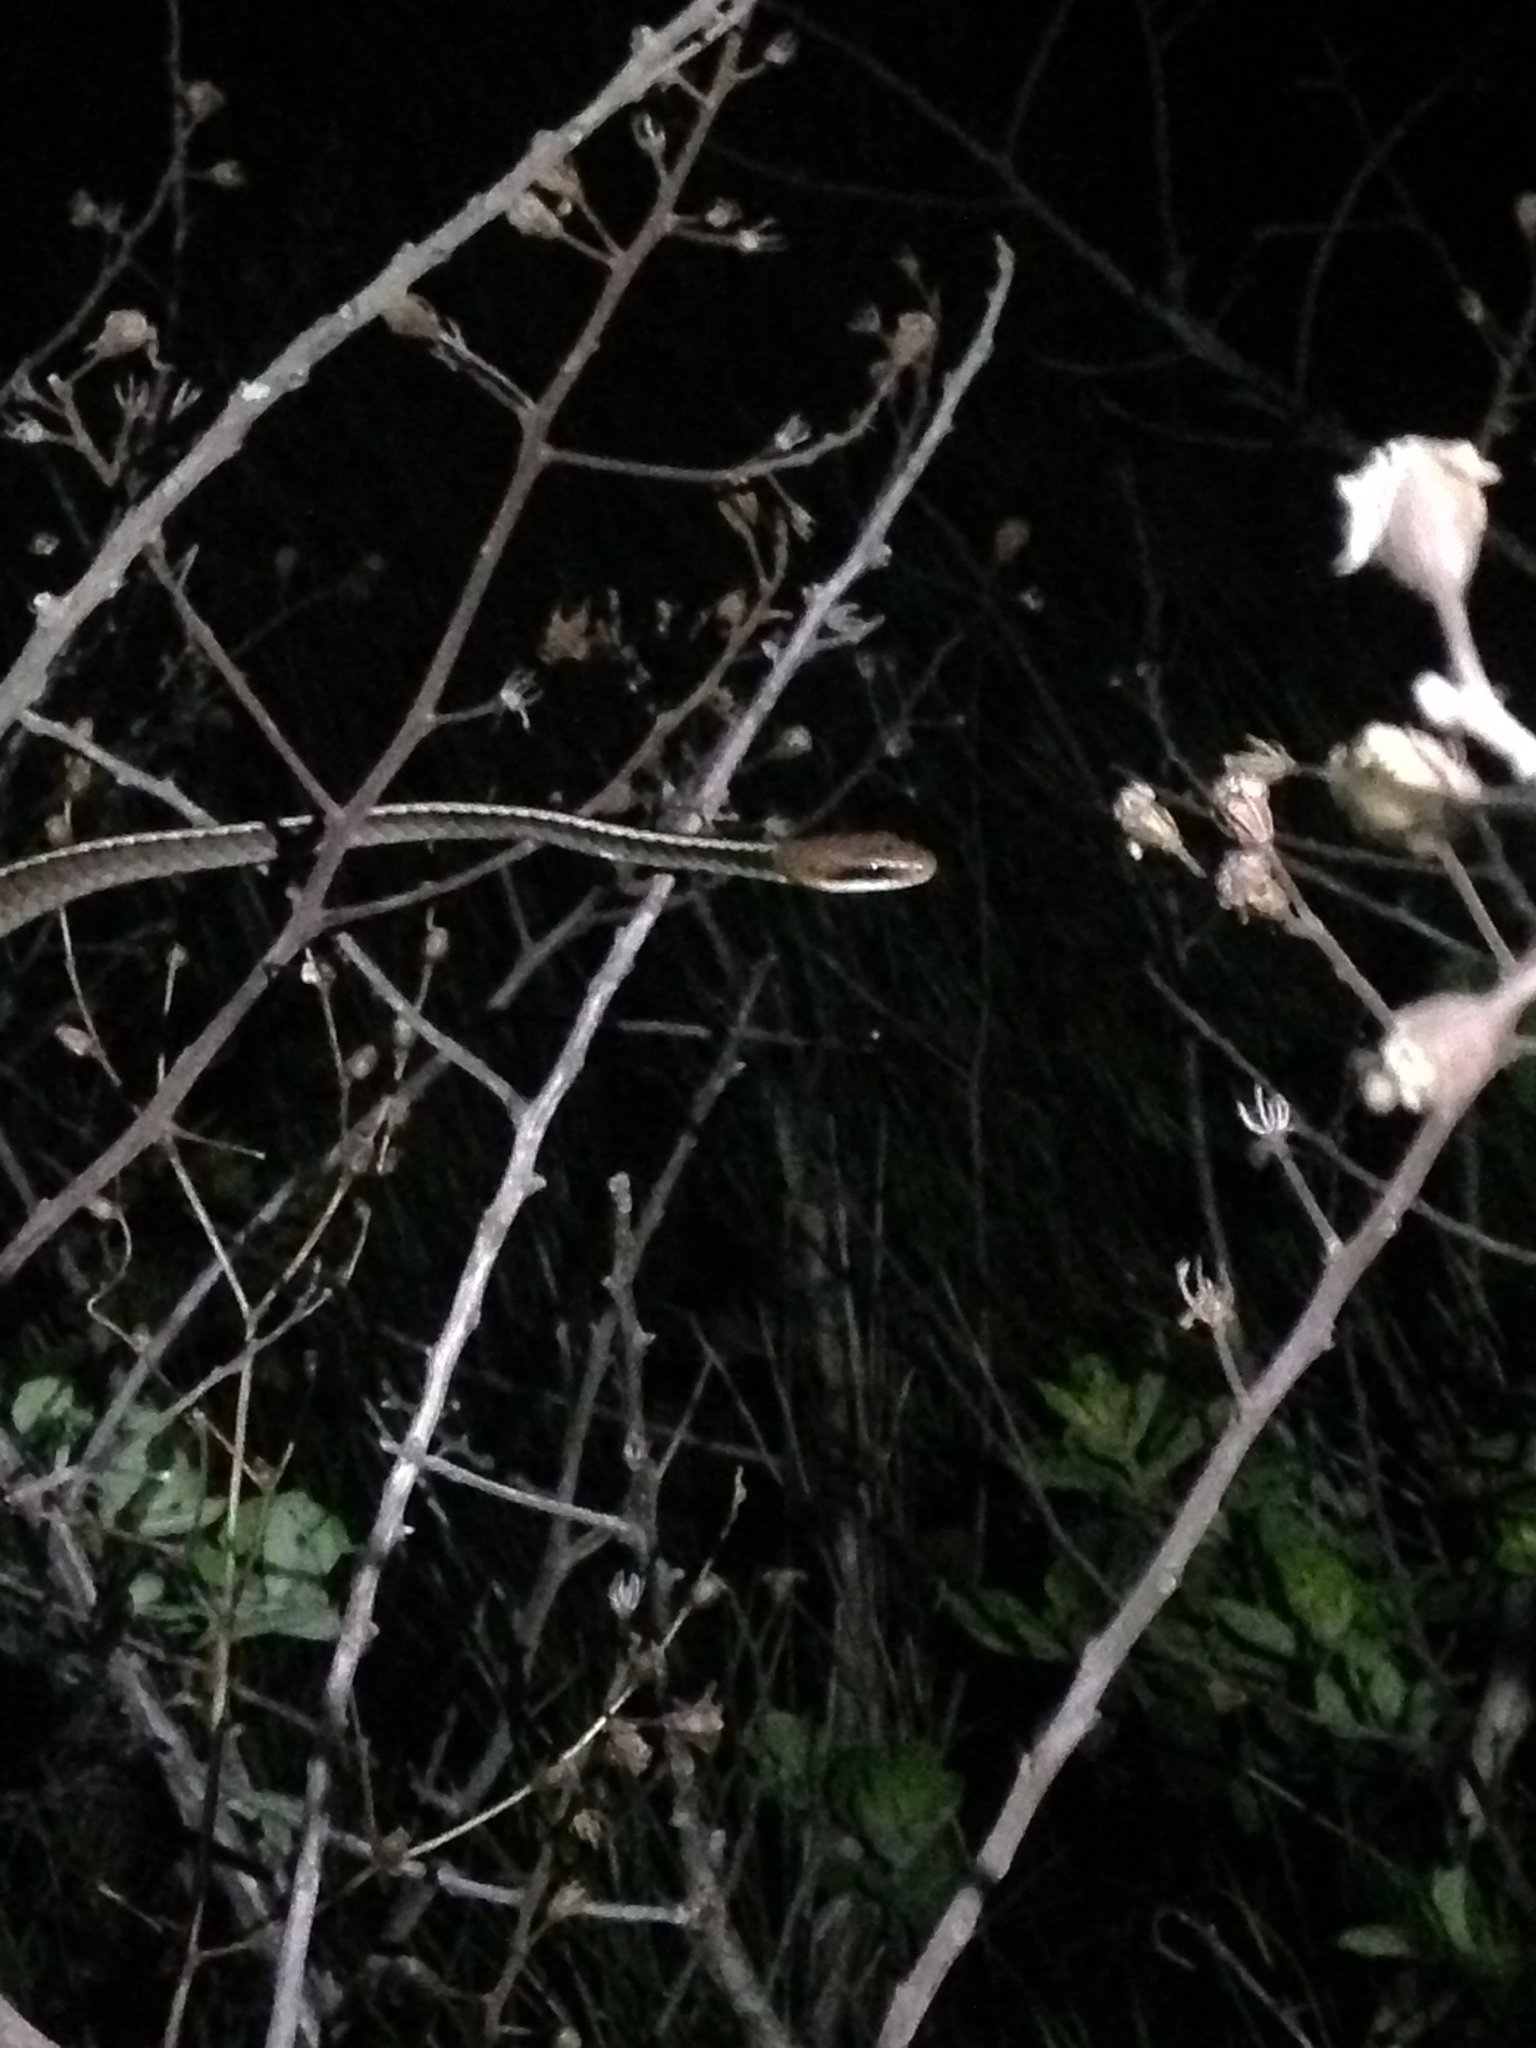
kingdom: Animalia
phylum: Chordata
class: Squamata
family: Colubridae
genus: Chironius
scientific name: Chironius flavolineatus
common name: Boettger's sipo
